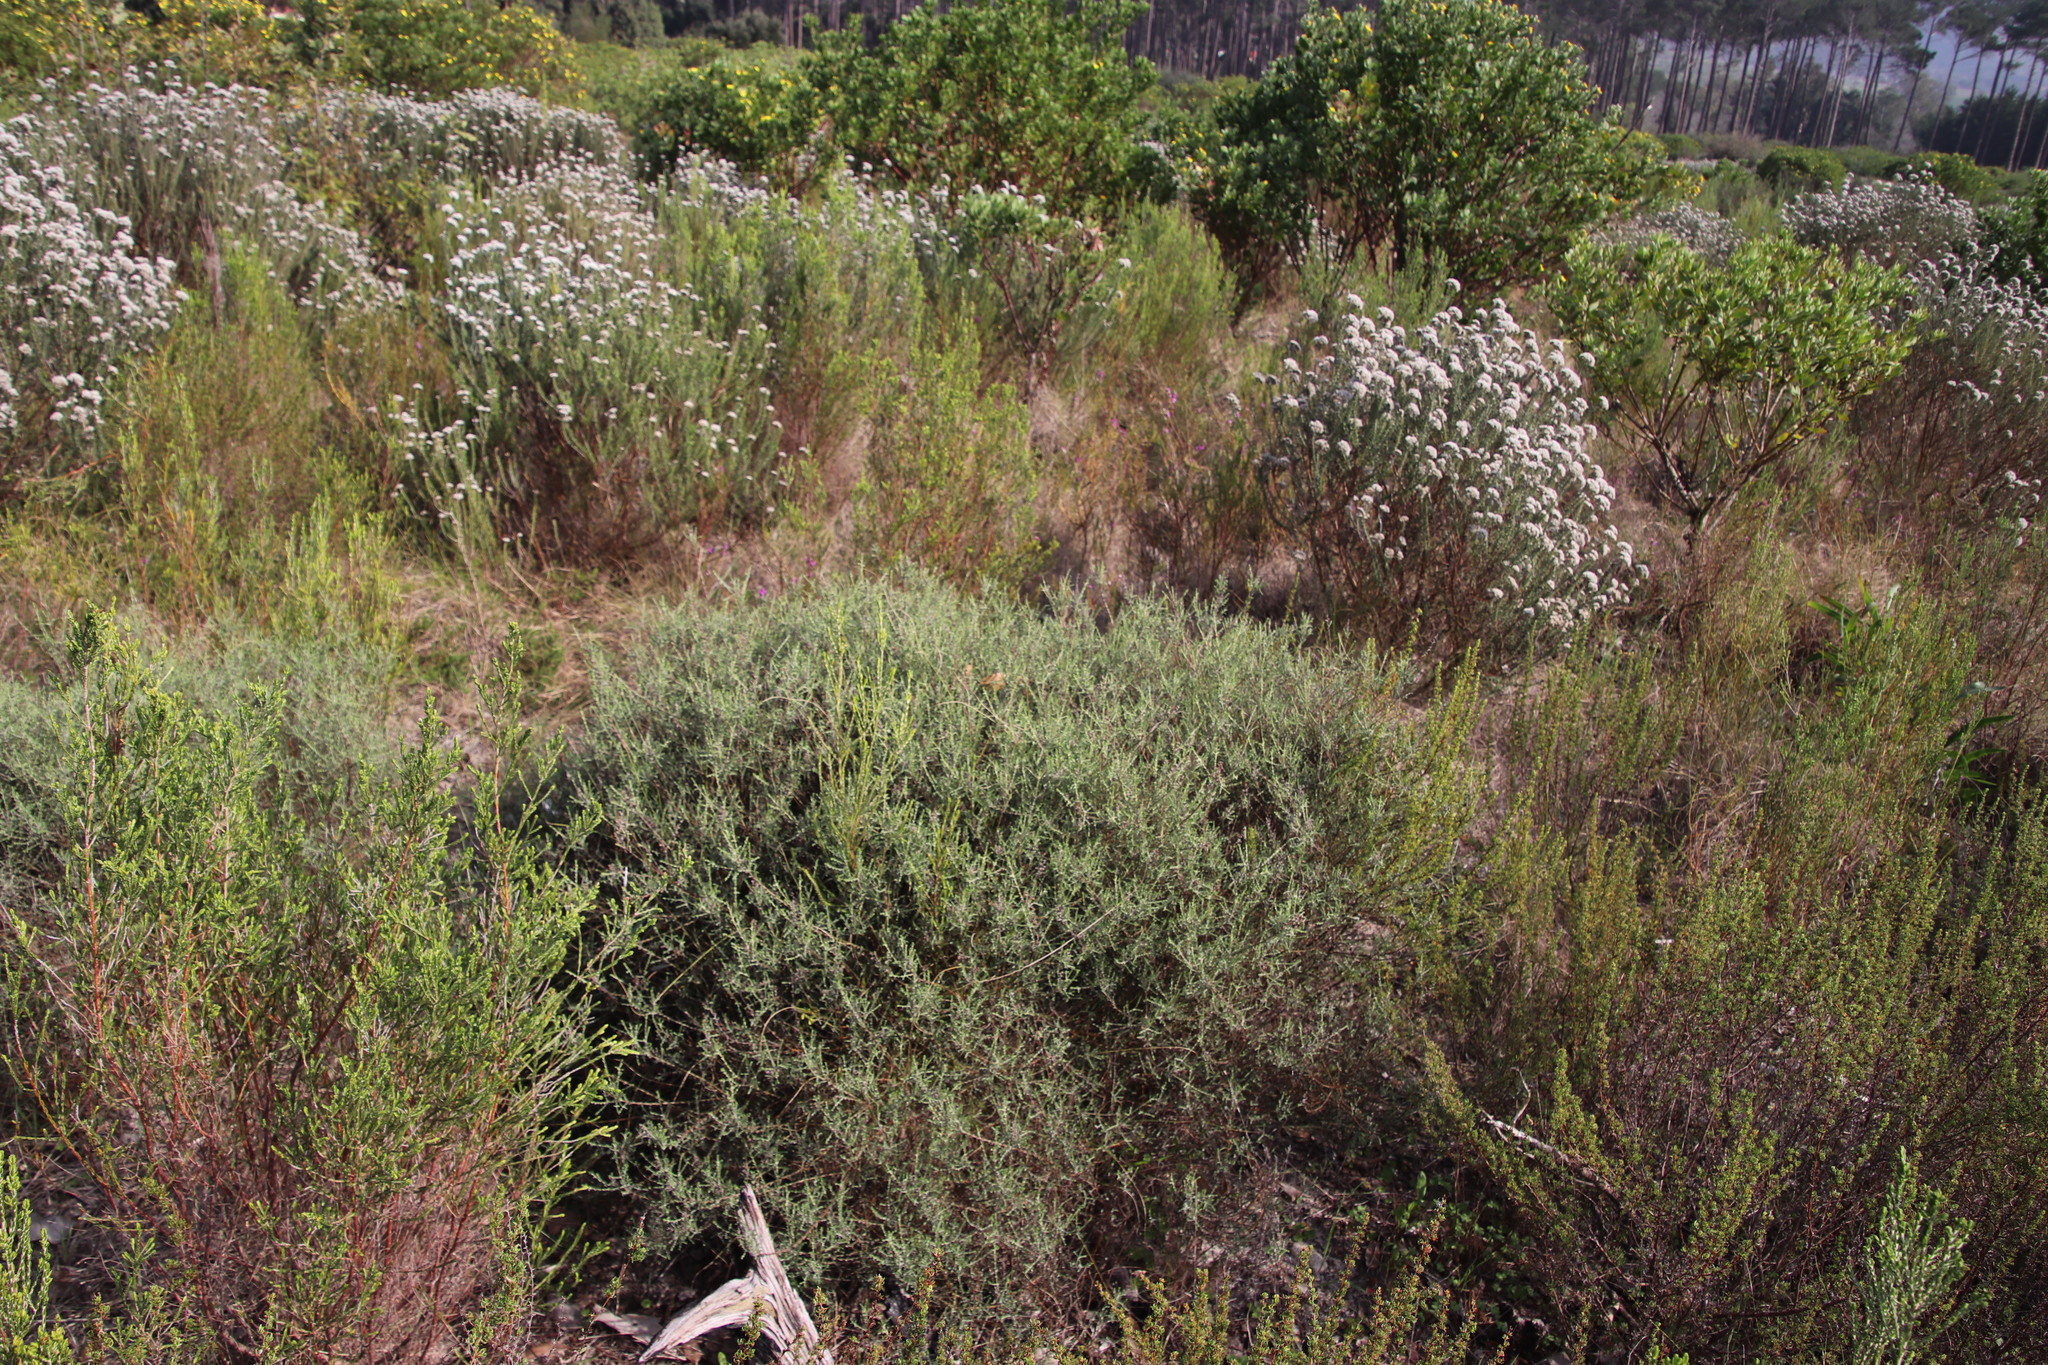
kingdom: Plantae
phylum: Tracheophyta
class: Magnoliopsida
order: Asterales
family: Asteraceae
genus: Myrovernix
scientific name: Myrovernix scaber
